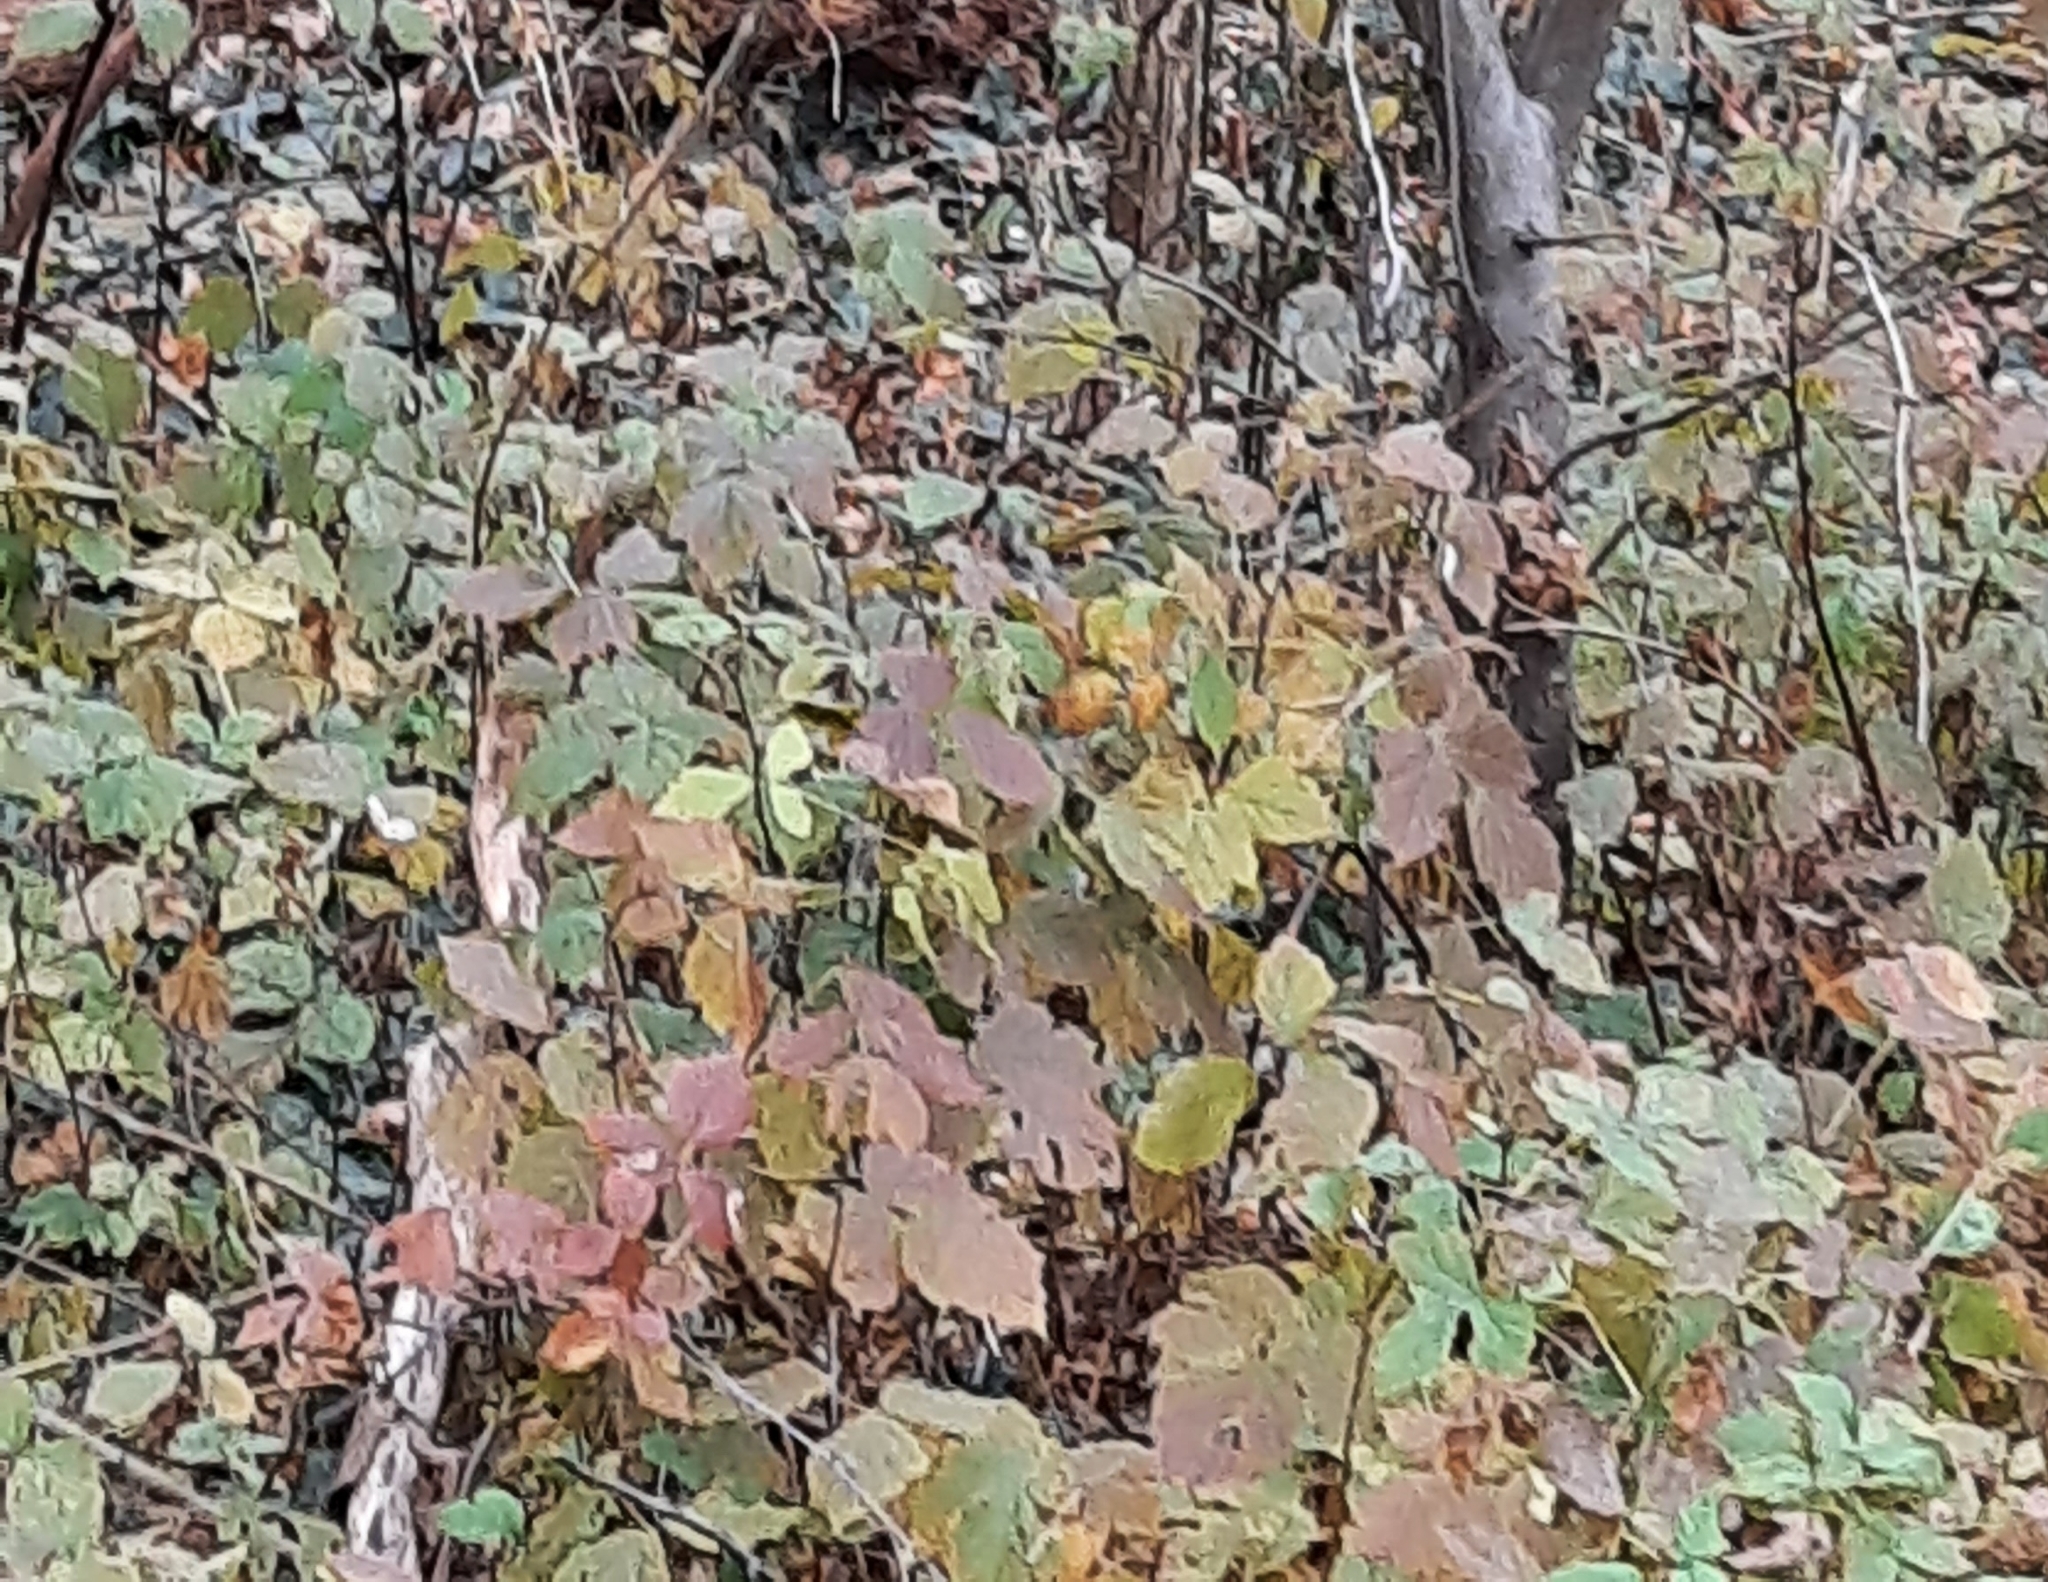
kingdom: Plantae
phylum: Tracheophyta
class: Magnoliopsida
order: Rosales
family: Rosaceae
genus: Rubus
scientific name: Rubus
